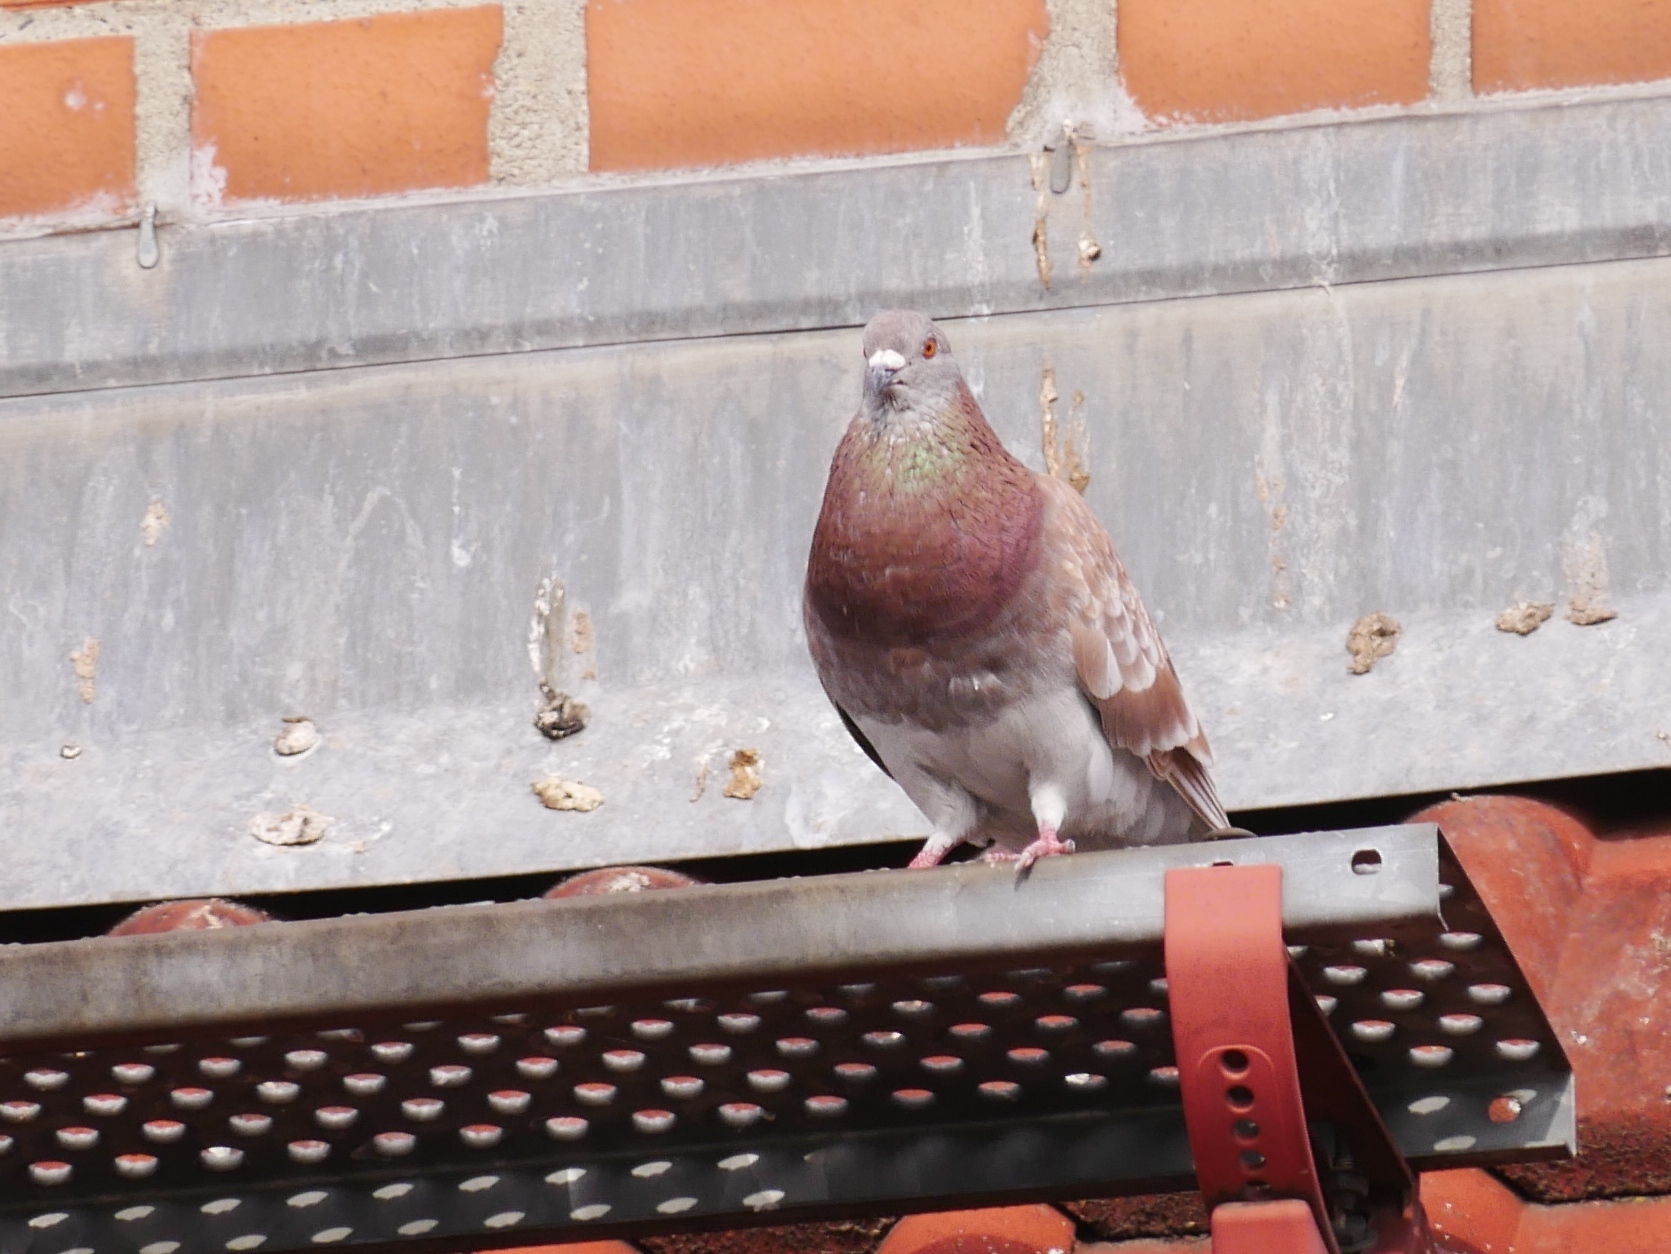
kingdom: Animalia
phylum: Chordata
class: Aves
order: Columbiformes
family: Columbidae
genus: Columba
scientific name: Columba livia
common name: Rock pigeon
